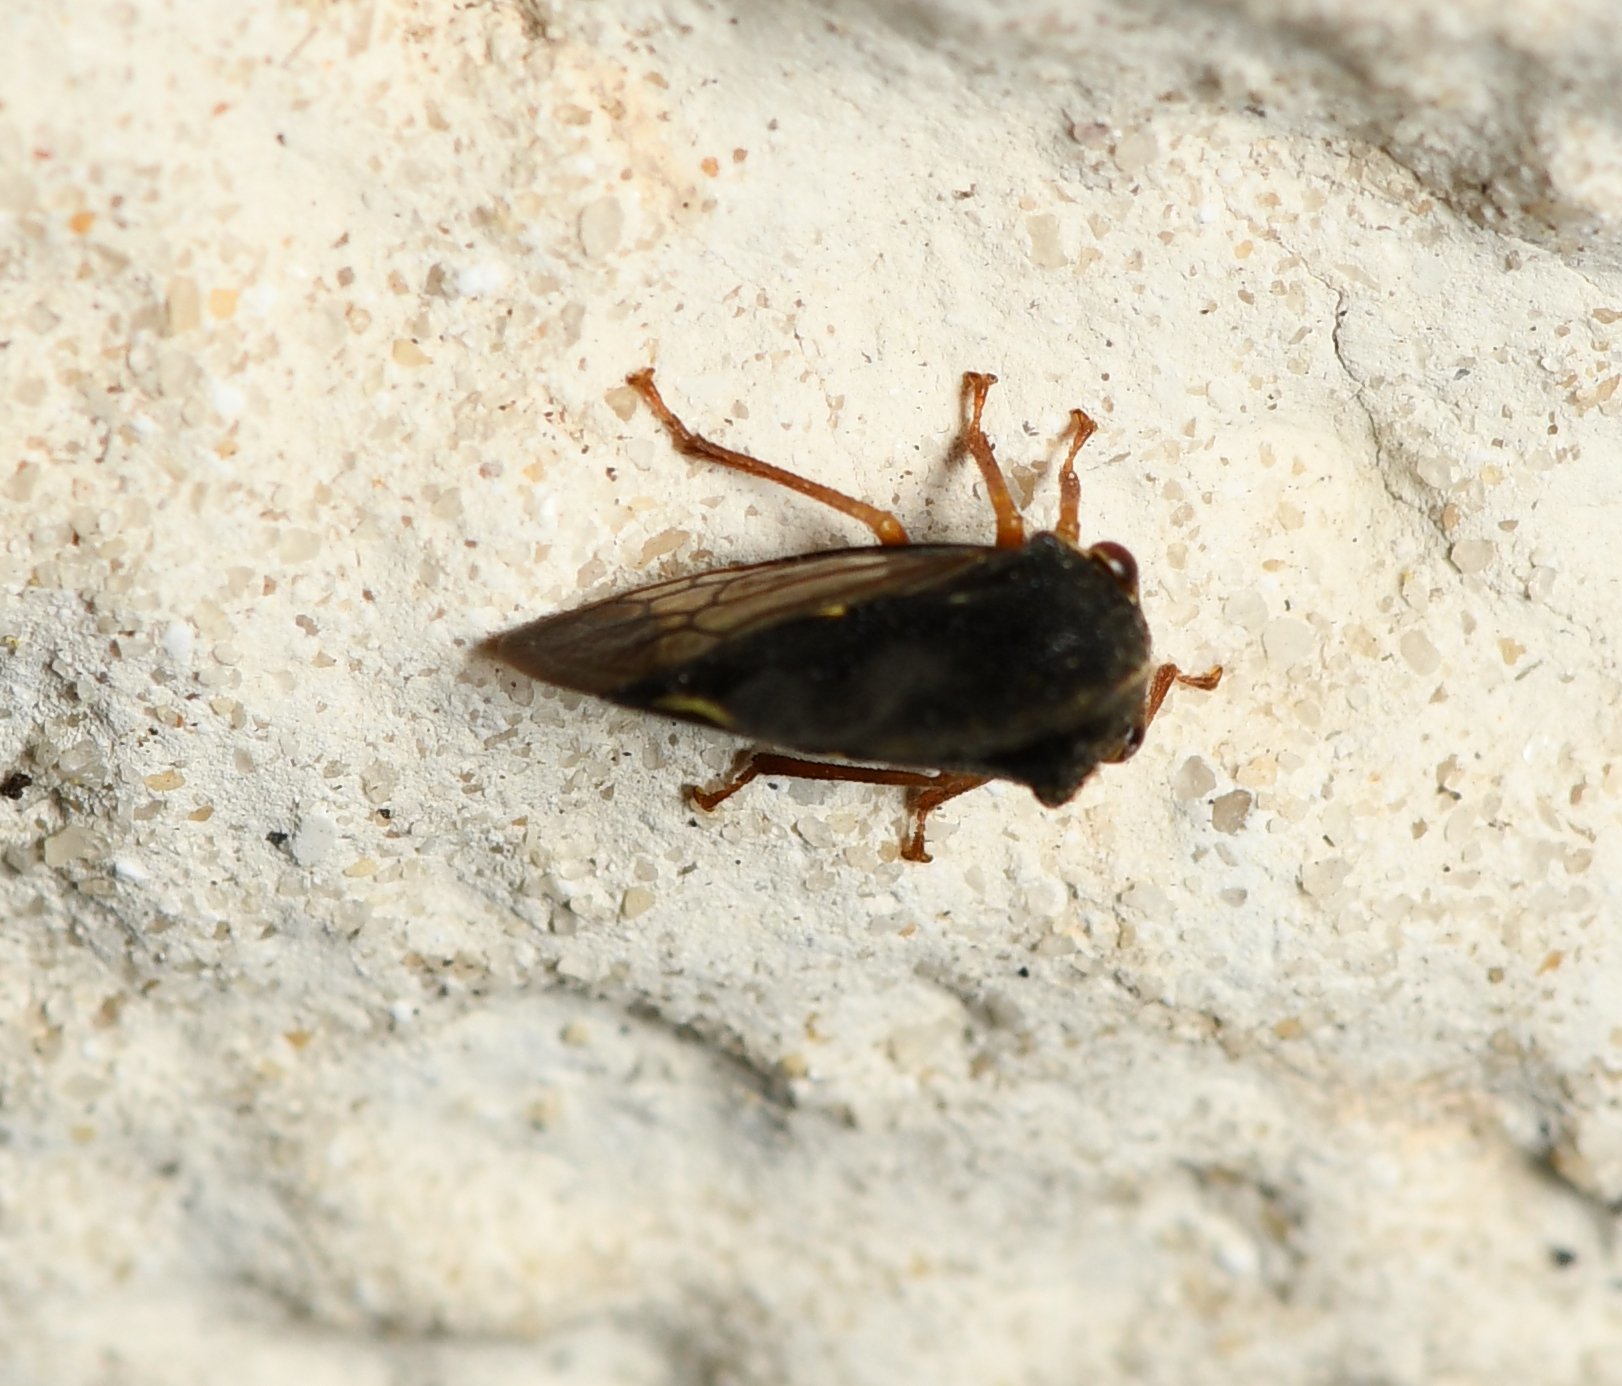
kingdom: Animalia
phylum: Arthropoda
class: Insecta
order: Hemiptera
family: Membracidae
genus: Smilia
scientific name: Smilia camelus
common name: Camel treehopper
